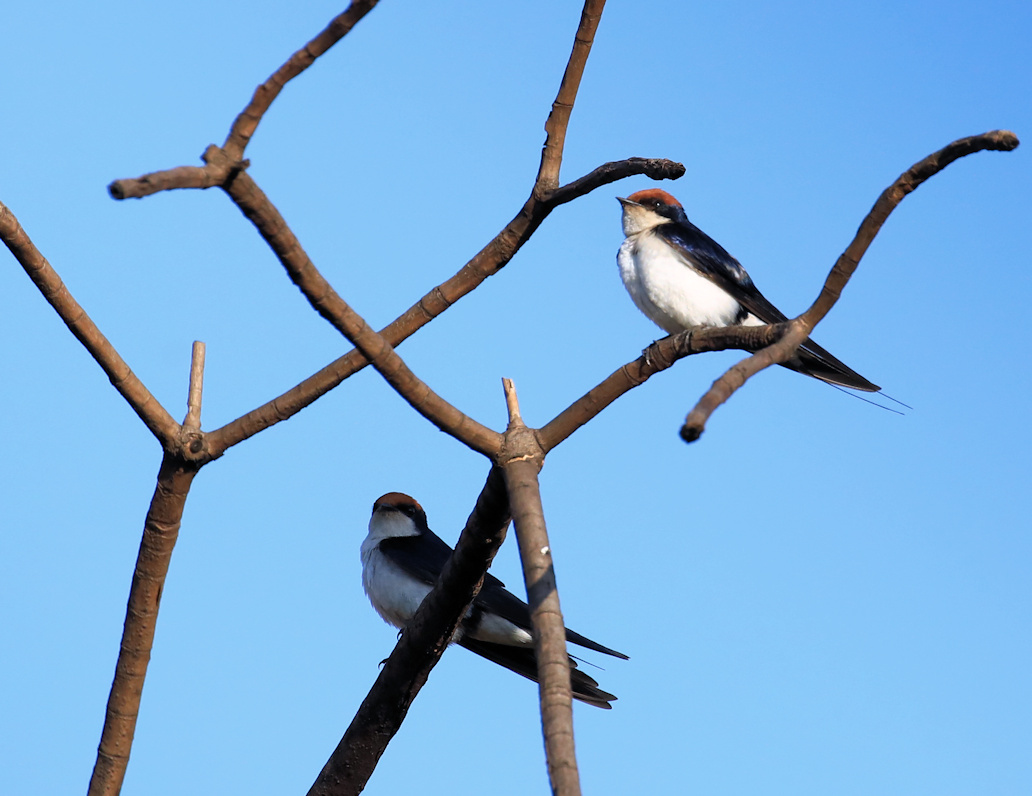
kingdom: Animalia
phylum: Chordata
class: Aves
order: Passeriformes
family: Hirundinidae
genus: Hirundo
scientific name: Hirundo smithii
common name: Wire-tailed swallow
